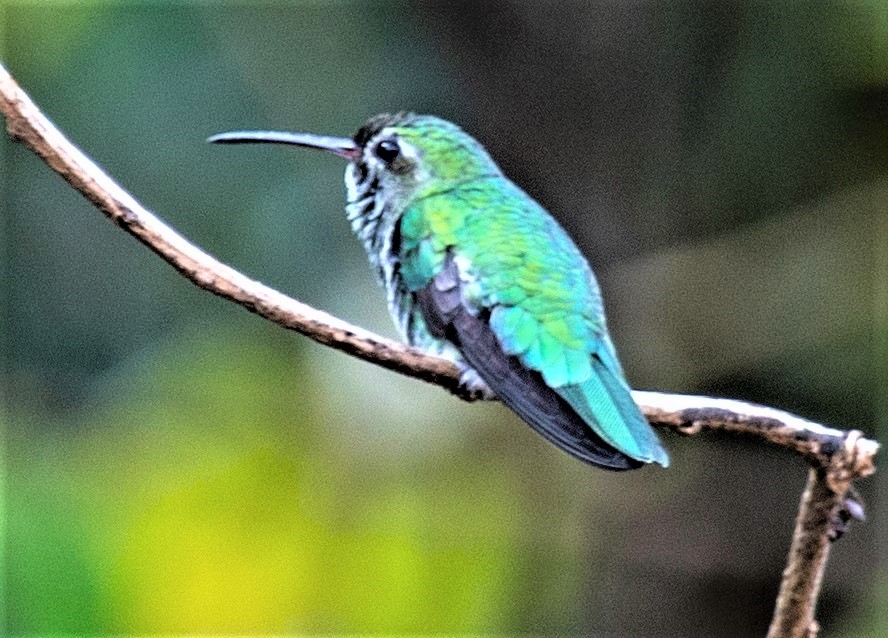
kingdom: Animalia
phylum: Chordata
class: Aves
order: Apodiformes
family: Trochilidae
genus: Polytmus
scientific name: Polytmus theresiae
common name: Green-tailed goldenthroat
